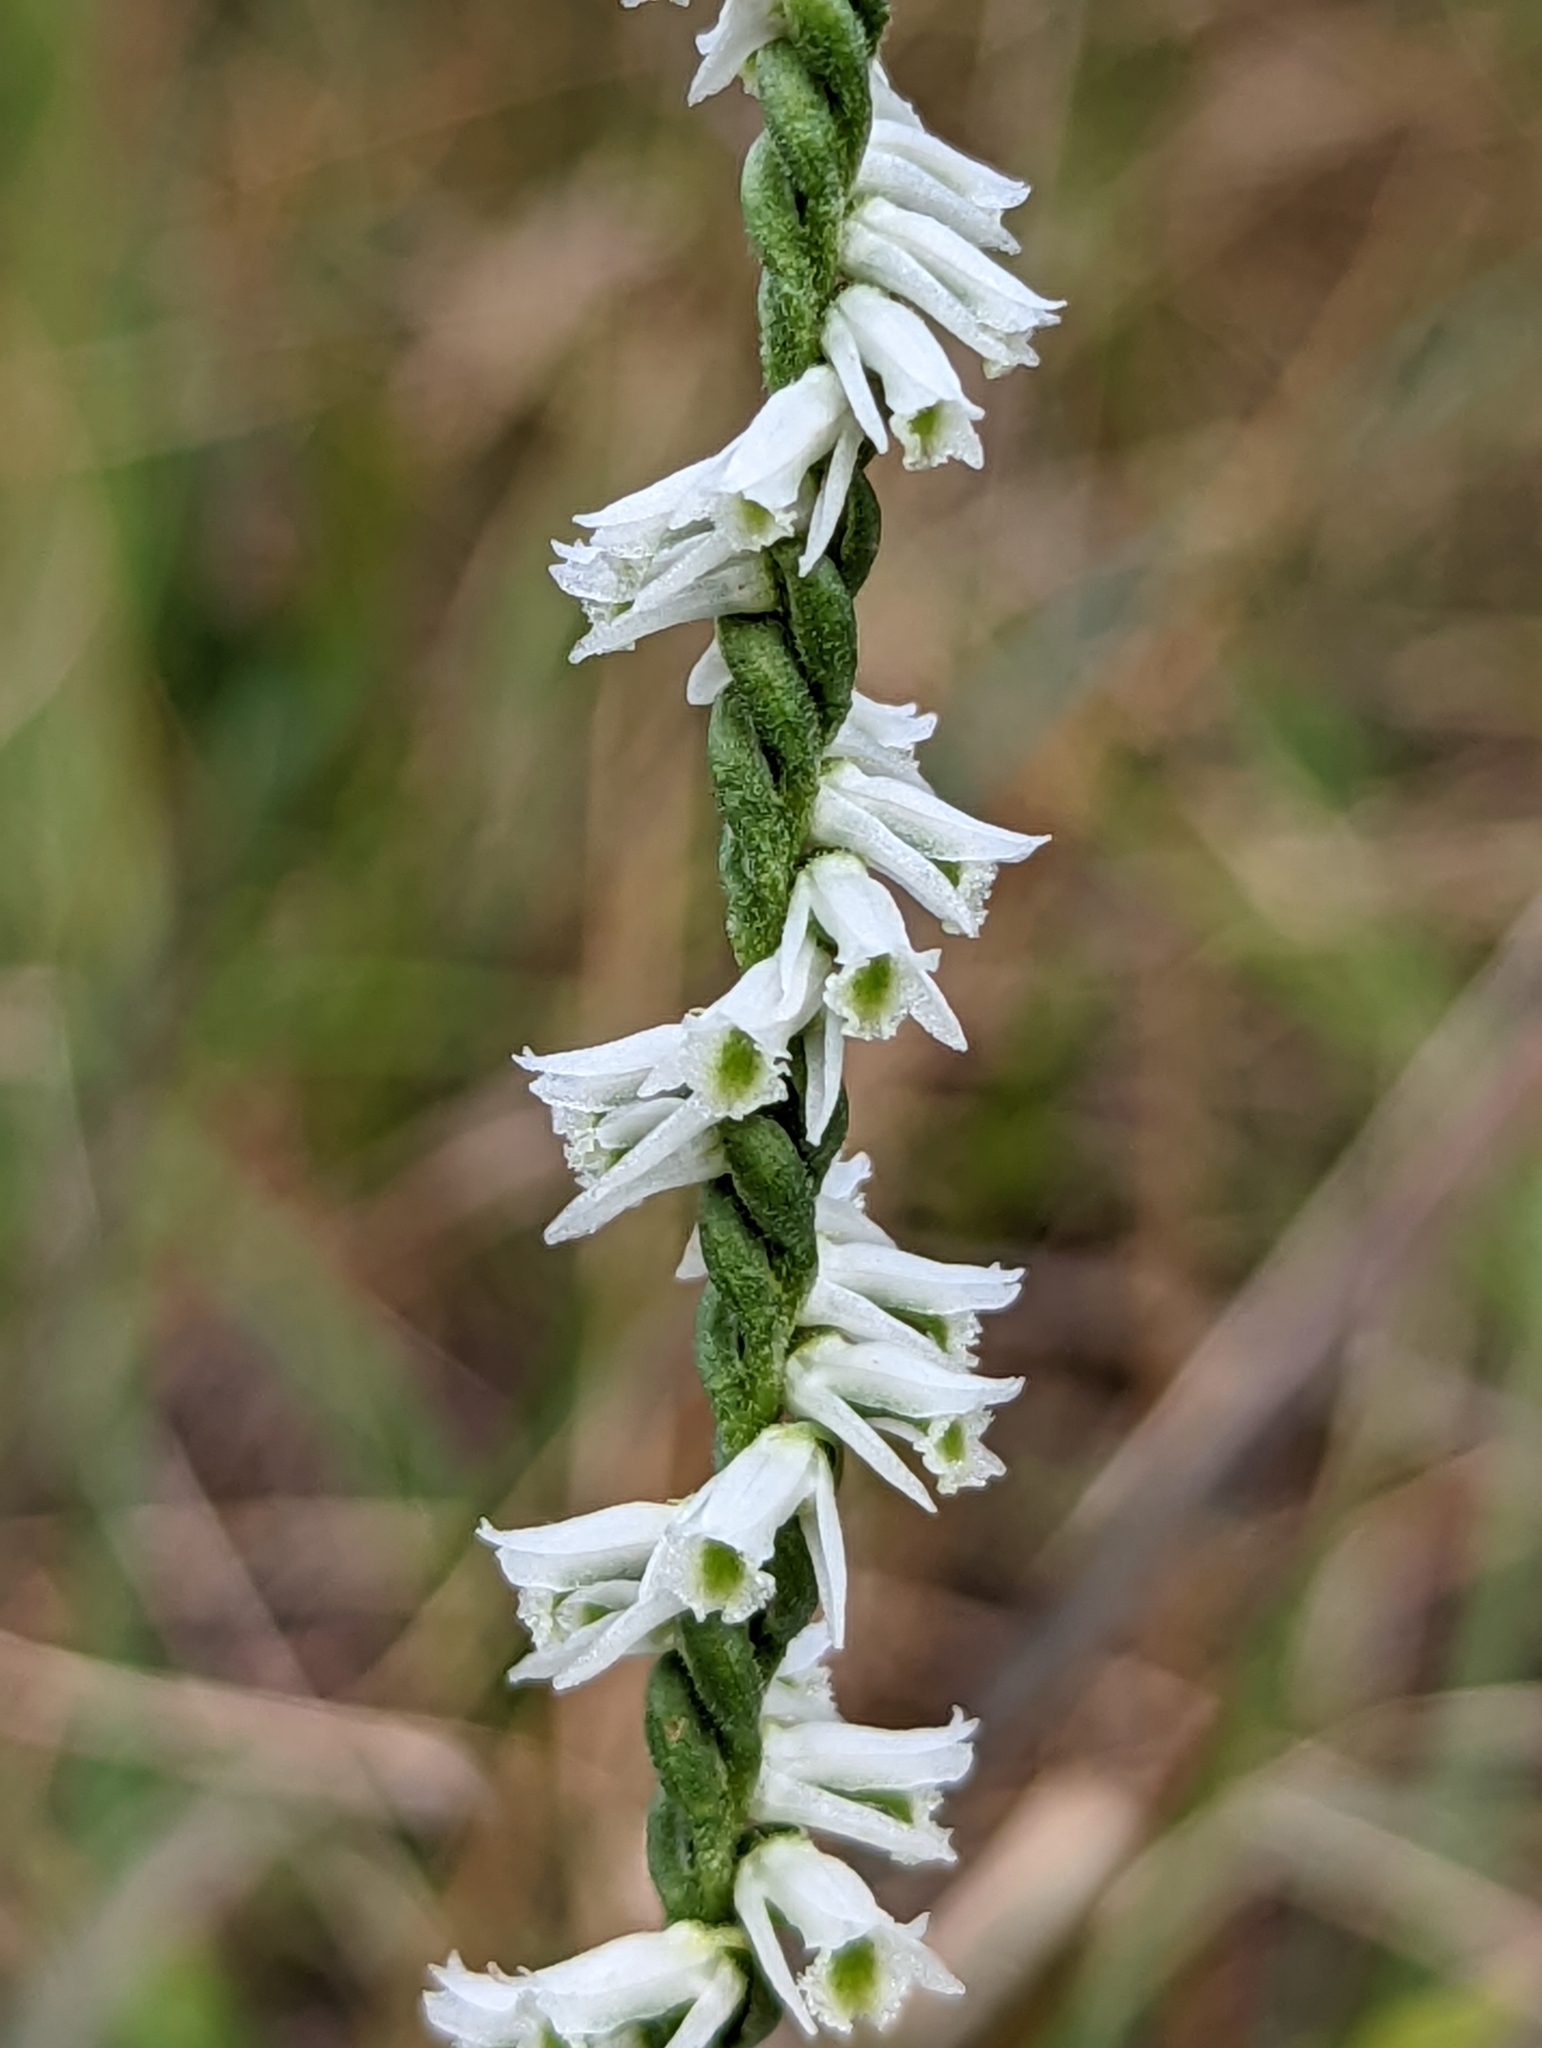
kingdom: Plantae
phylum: Tracheophyta
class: Liliopsida
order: Asparagales
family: Orchidaceae
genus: Spiranthes
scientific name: Spiranthes lacera
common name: Northern slender ladies'-tresses
